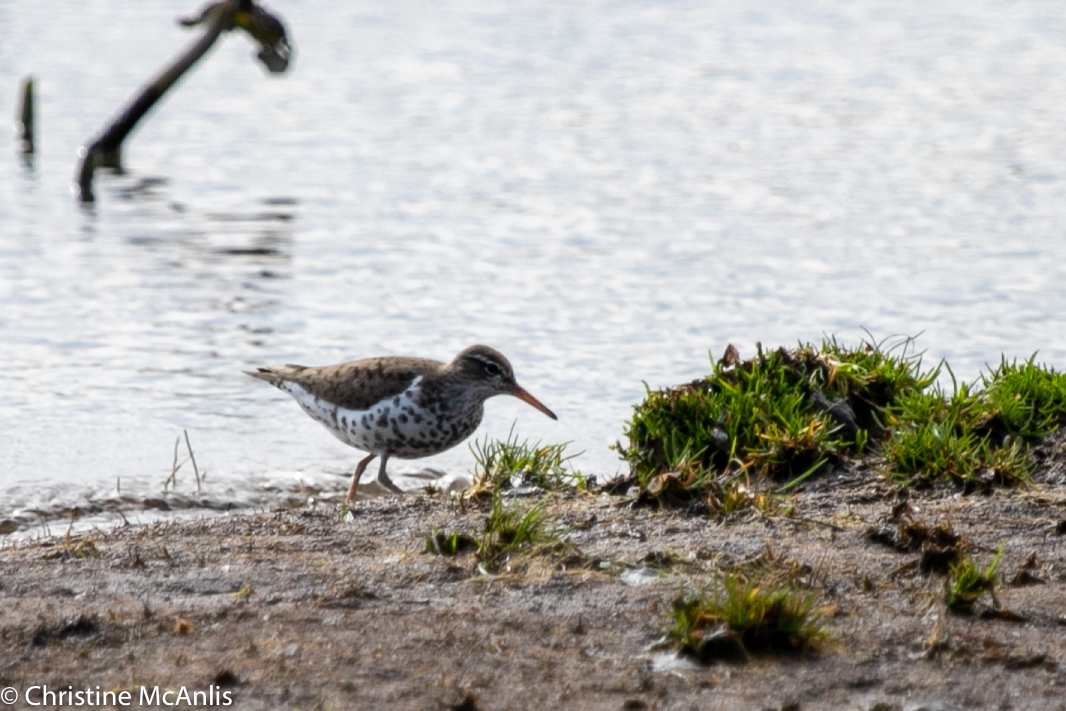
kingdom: Animalia
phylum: Chordata
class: Aves
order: Charadriiformes
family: Scolopacidae
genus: Actitis
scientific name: Actitis macularius
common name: Spotted sandpiper
